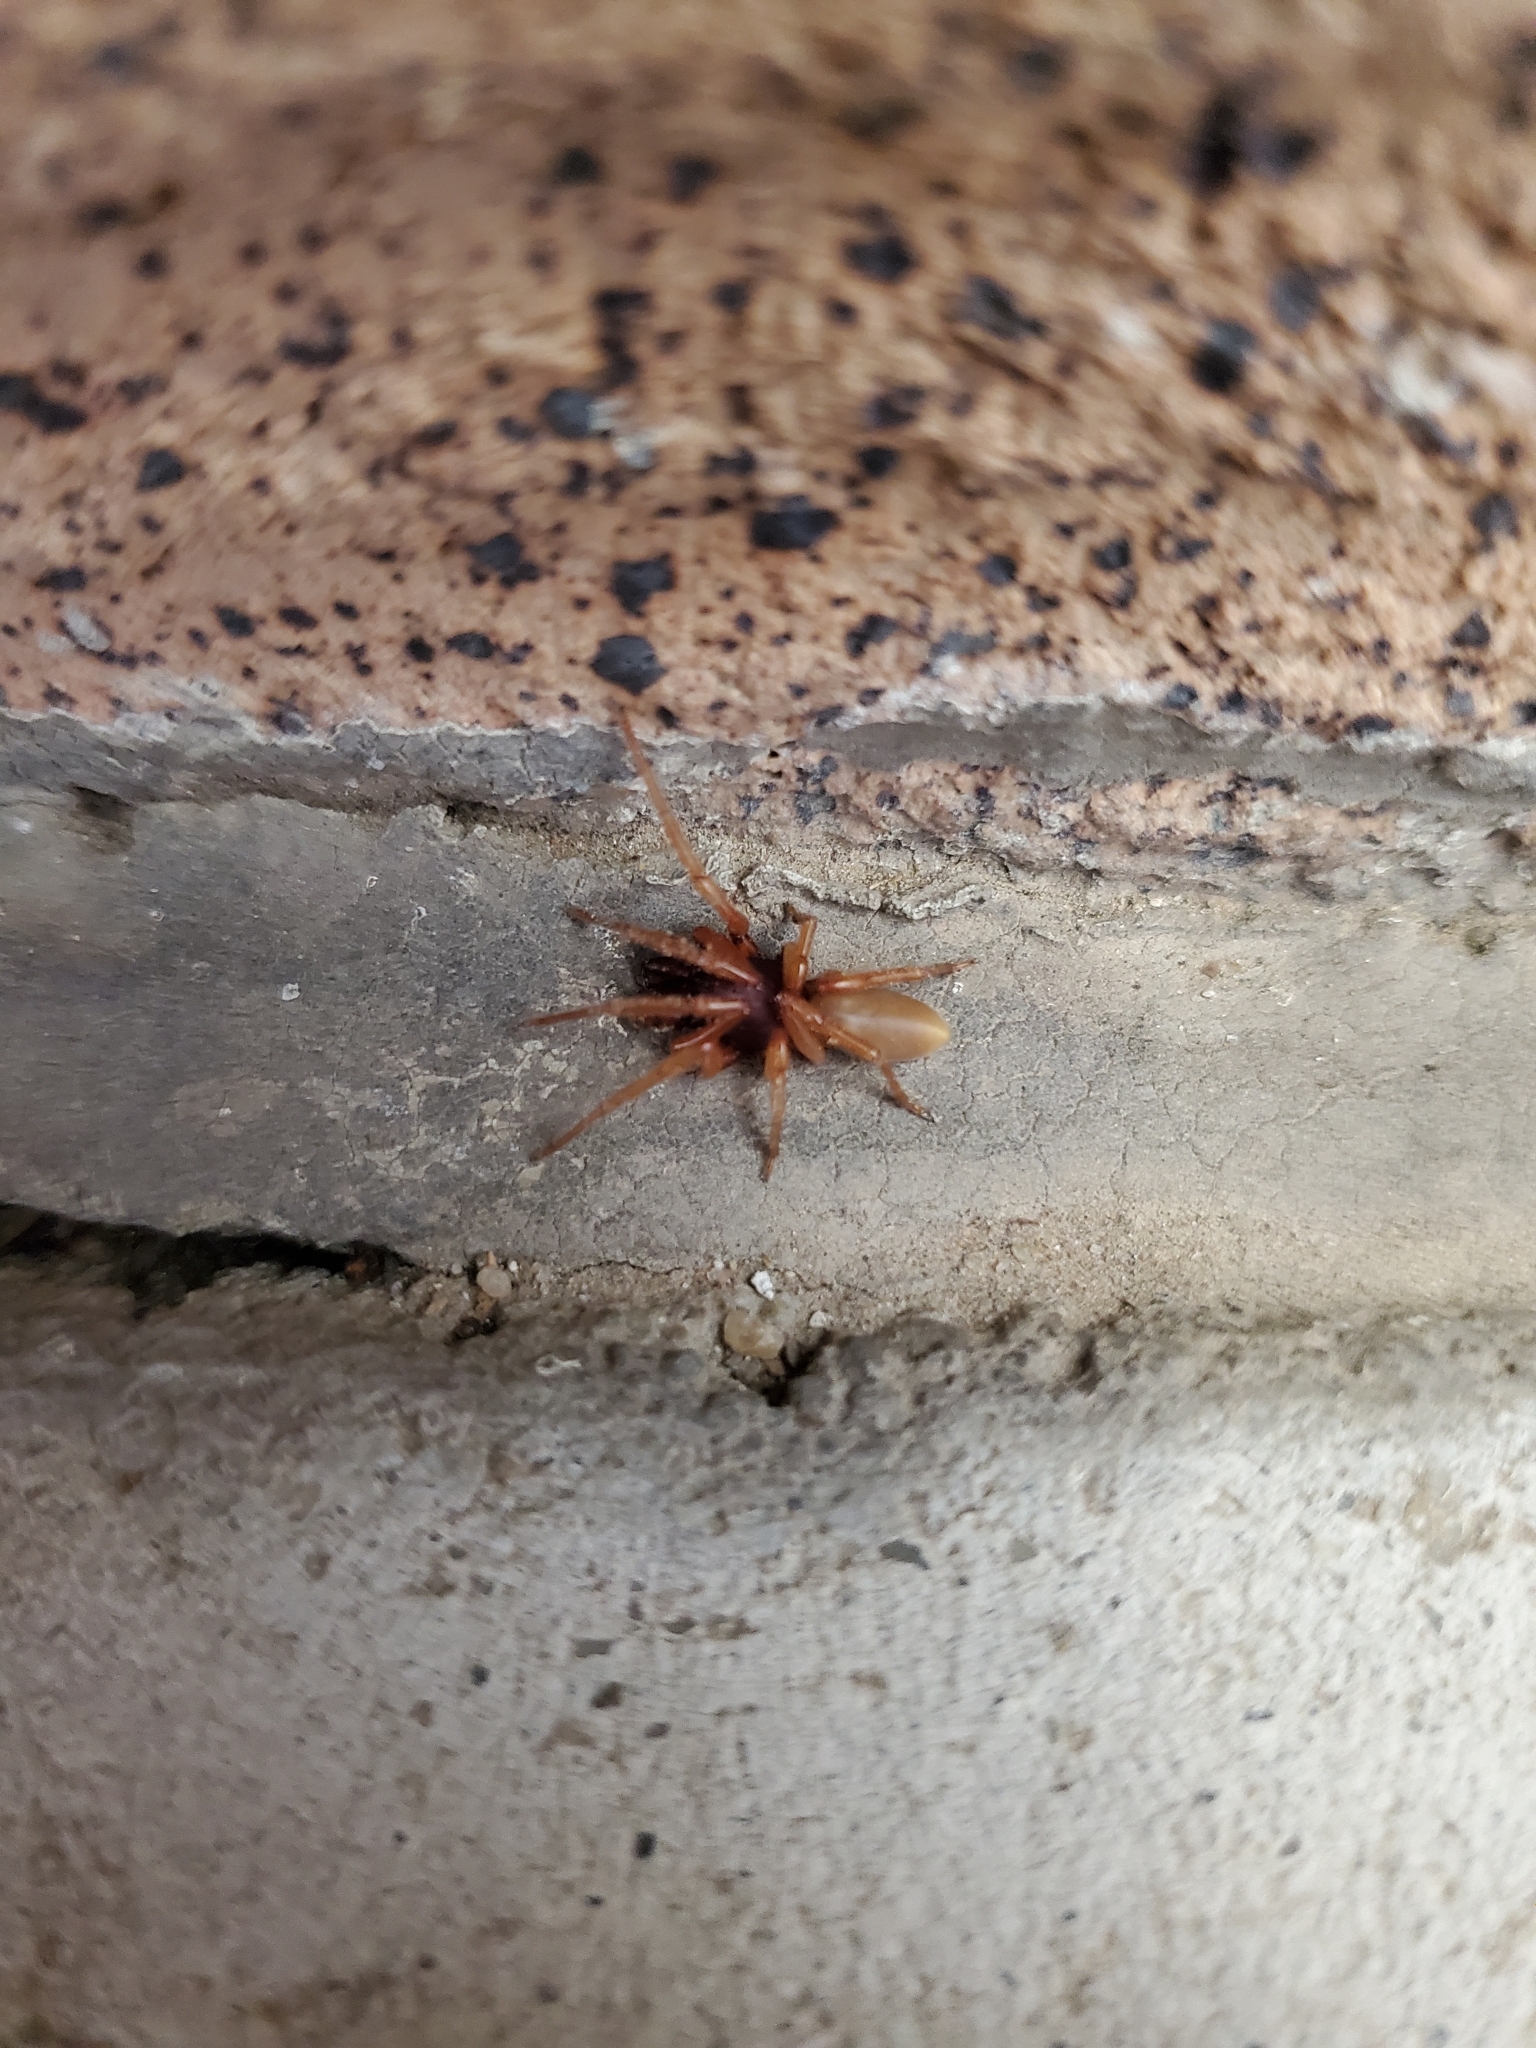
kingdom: Animalia
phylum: Arthropoda
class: Arachnida
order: Araneae
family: Dysderidae
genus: Dysdera
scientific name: Dysdera crocata
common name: Woodlouse spider
